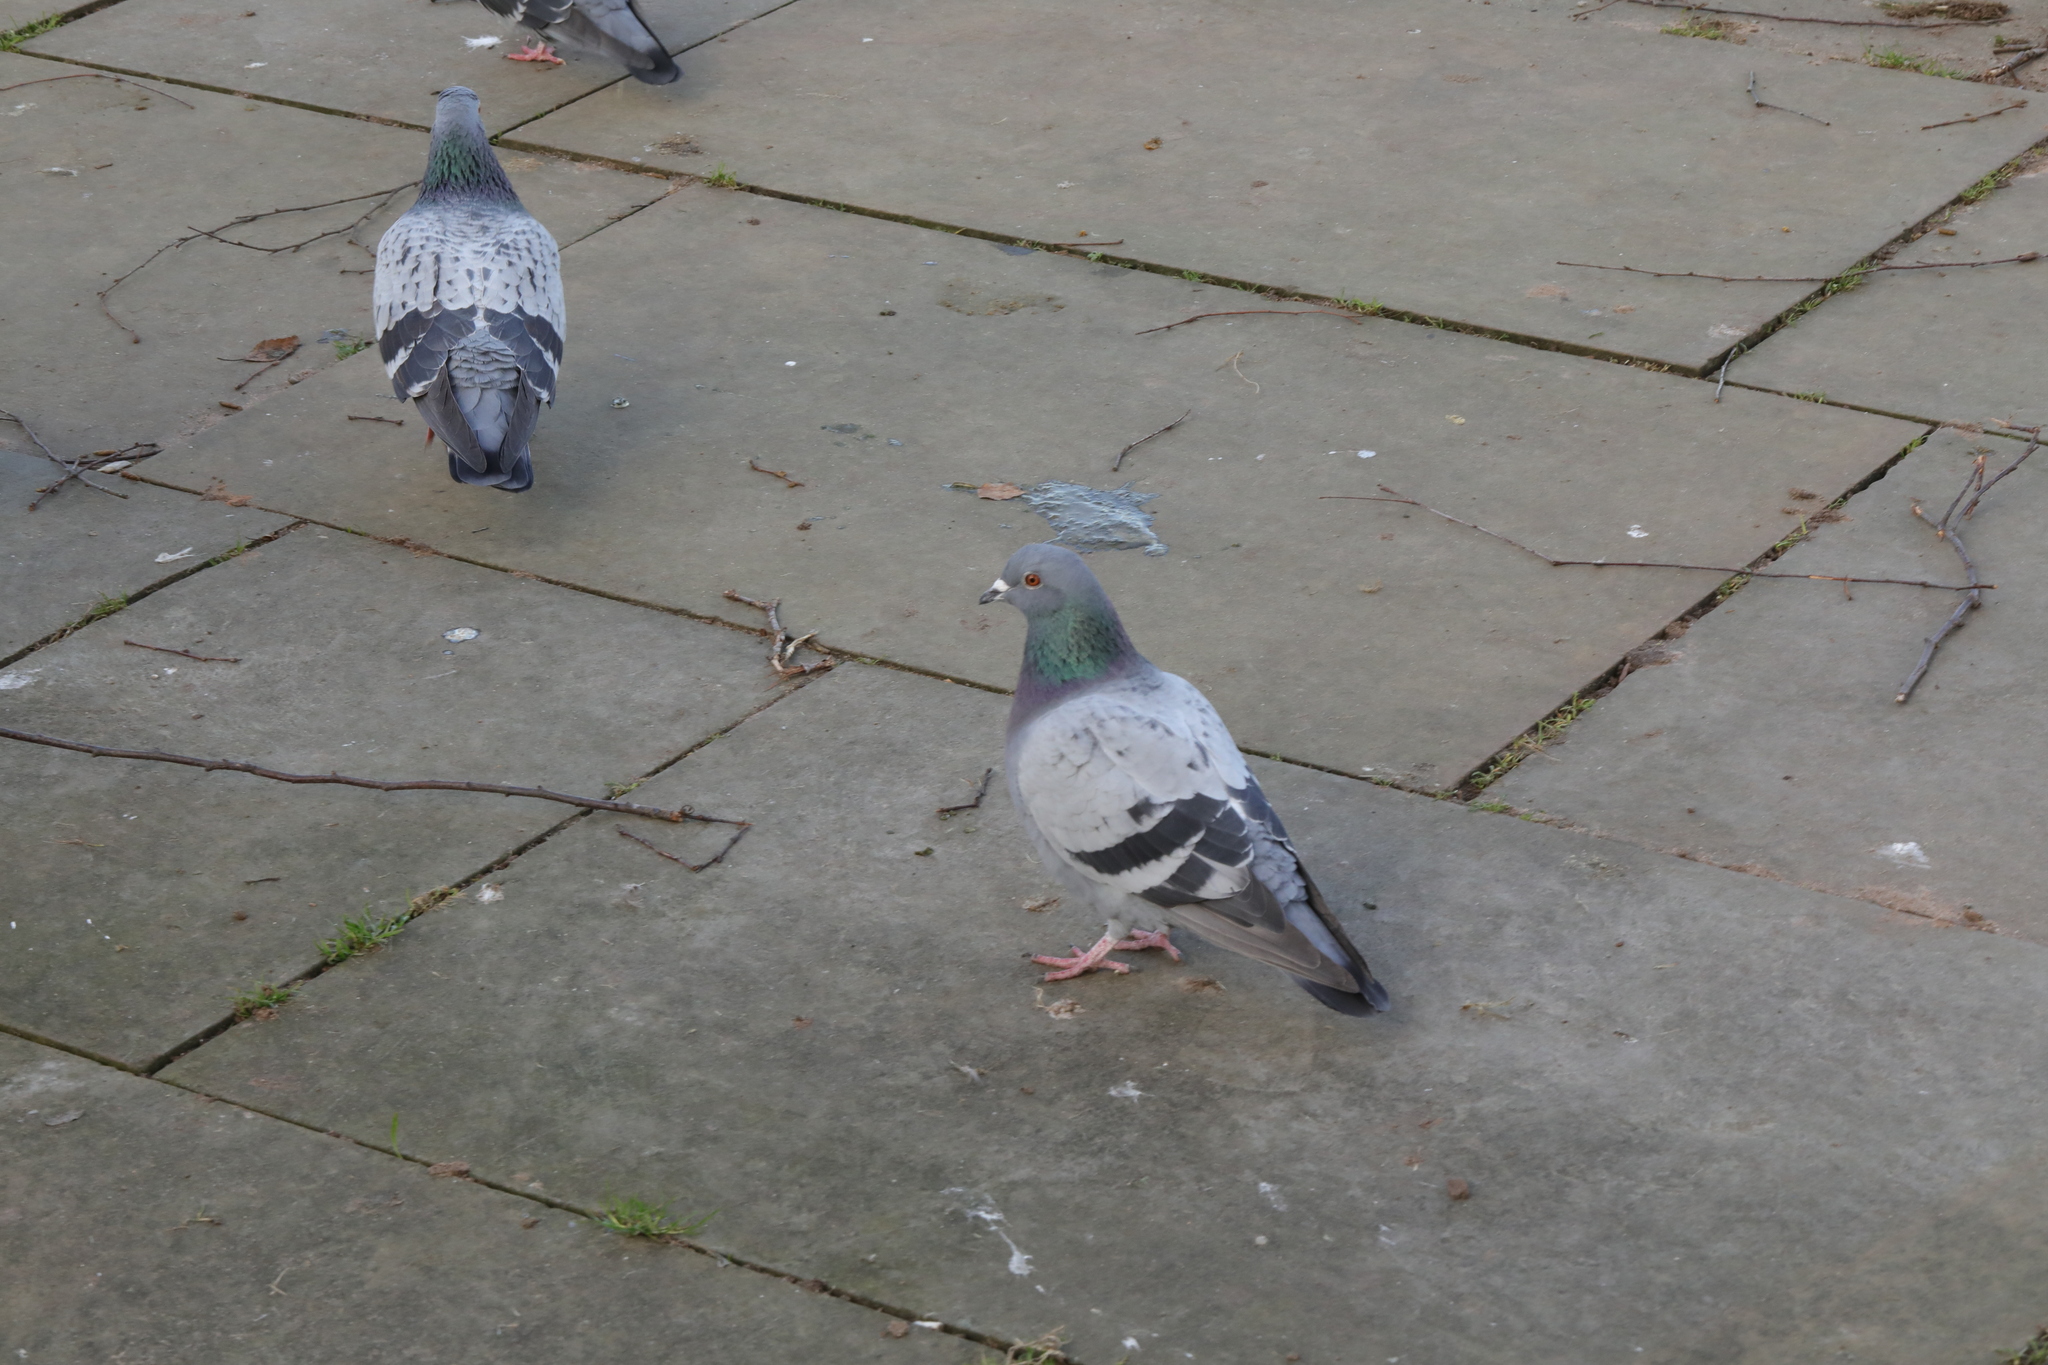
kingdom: Animalia
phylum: Chordata
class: Aves
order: Columbiformes
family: Columbidae
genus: Columba
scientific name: Columba livia
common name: Rock pigeon
